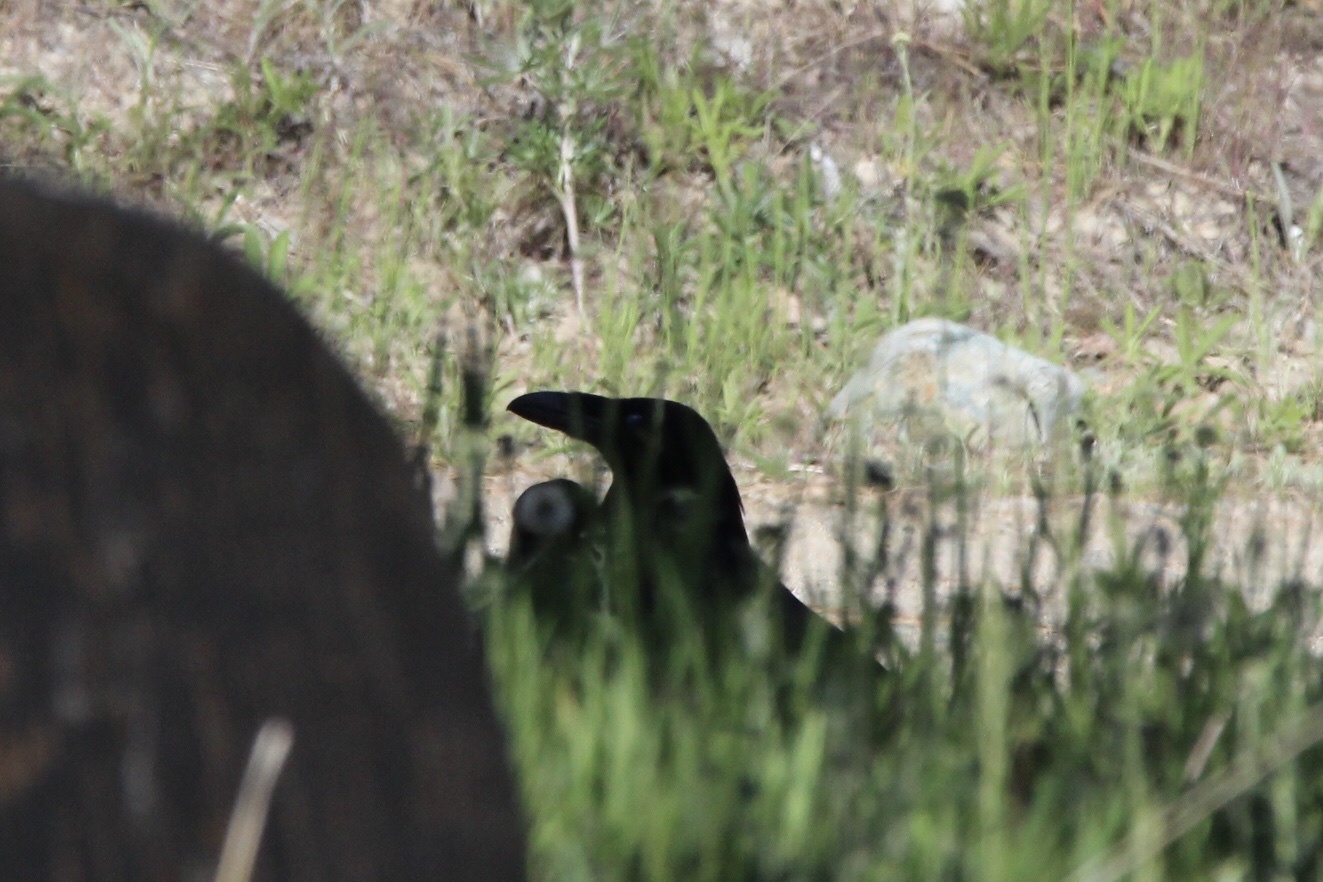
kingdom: Animalia
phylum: Chordata
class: Aves
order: Passeriformes
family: Corvidae
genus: Corvus
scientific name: Corvus corax
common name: Common raven
